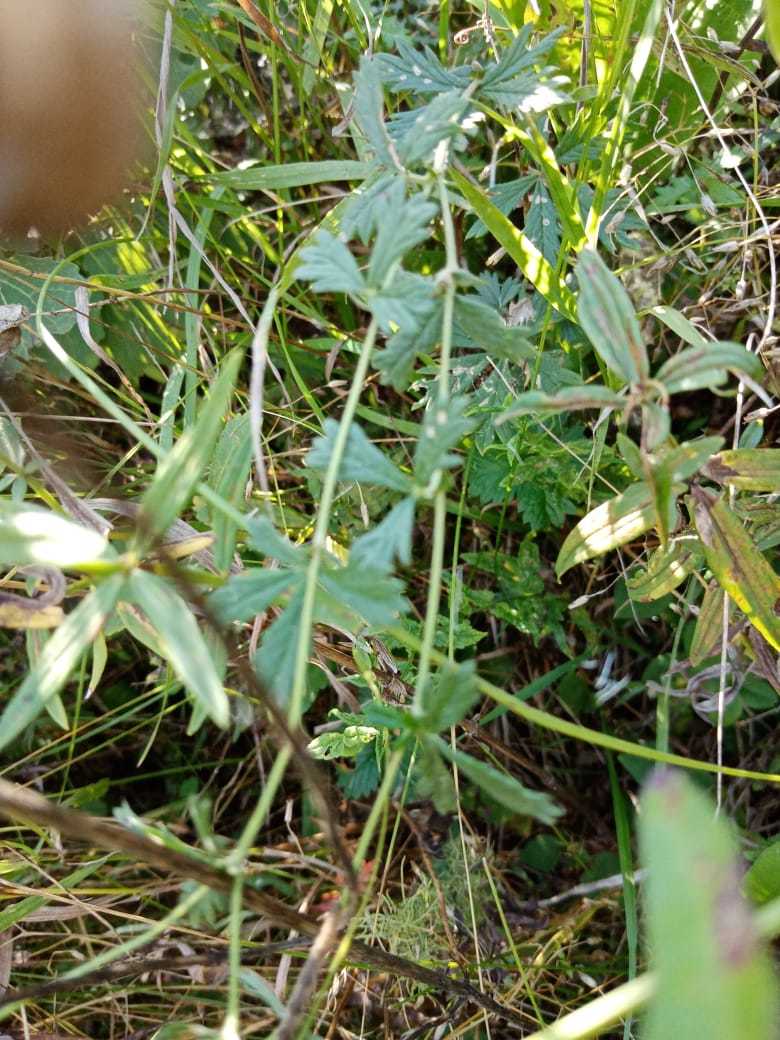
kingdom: Plantae
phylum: Tracheophyta
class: Magnoliopsida
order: Rosales
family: Rosaceae
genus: Potentilla
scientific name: Potentilla argentea
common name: Hoary cinquefoil
